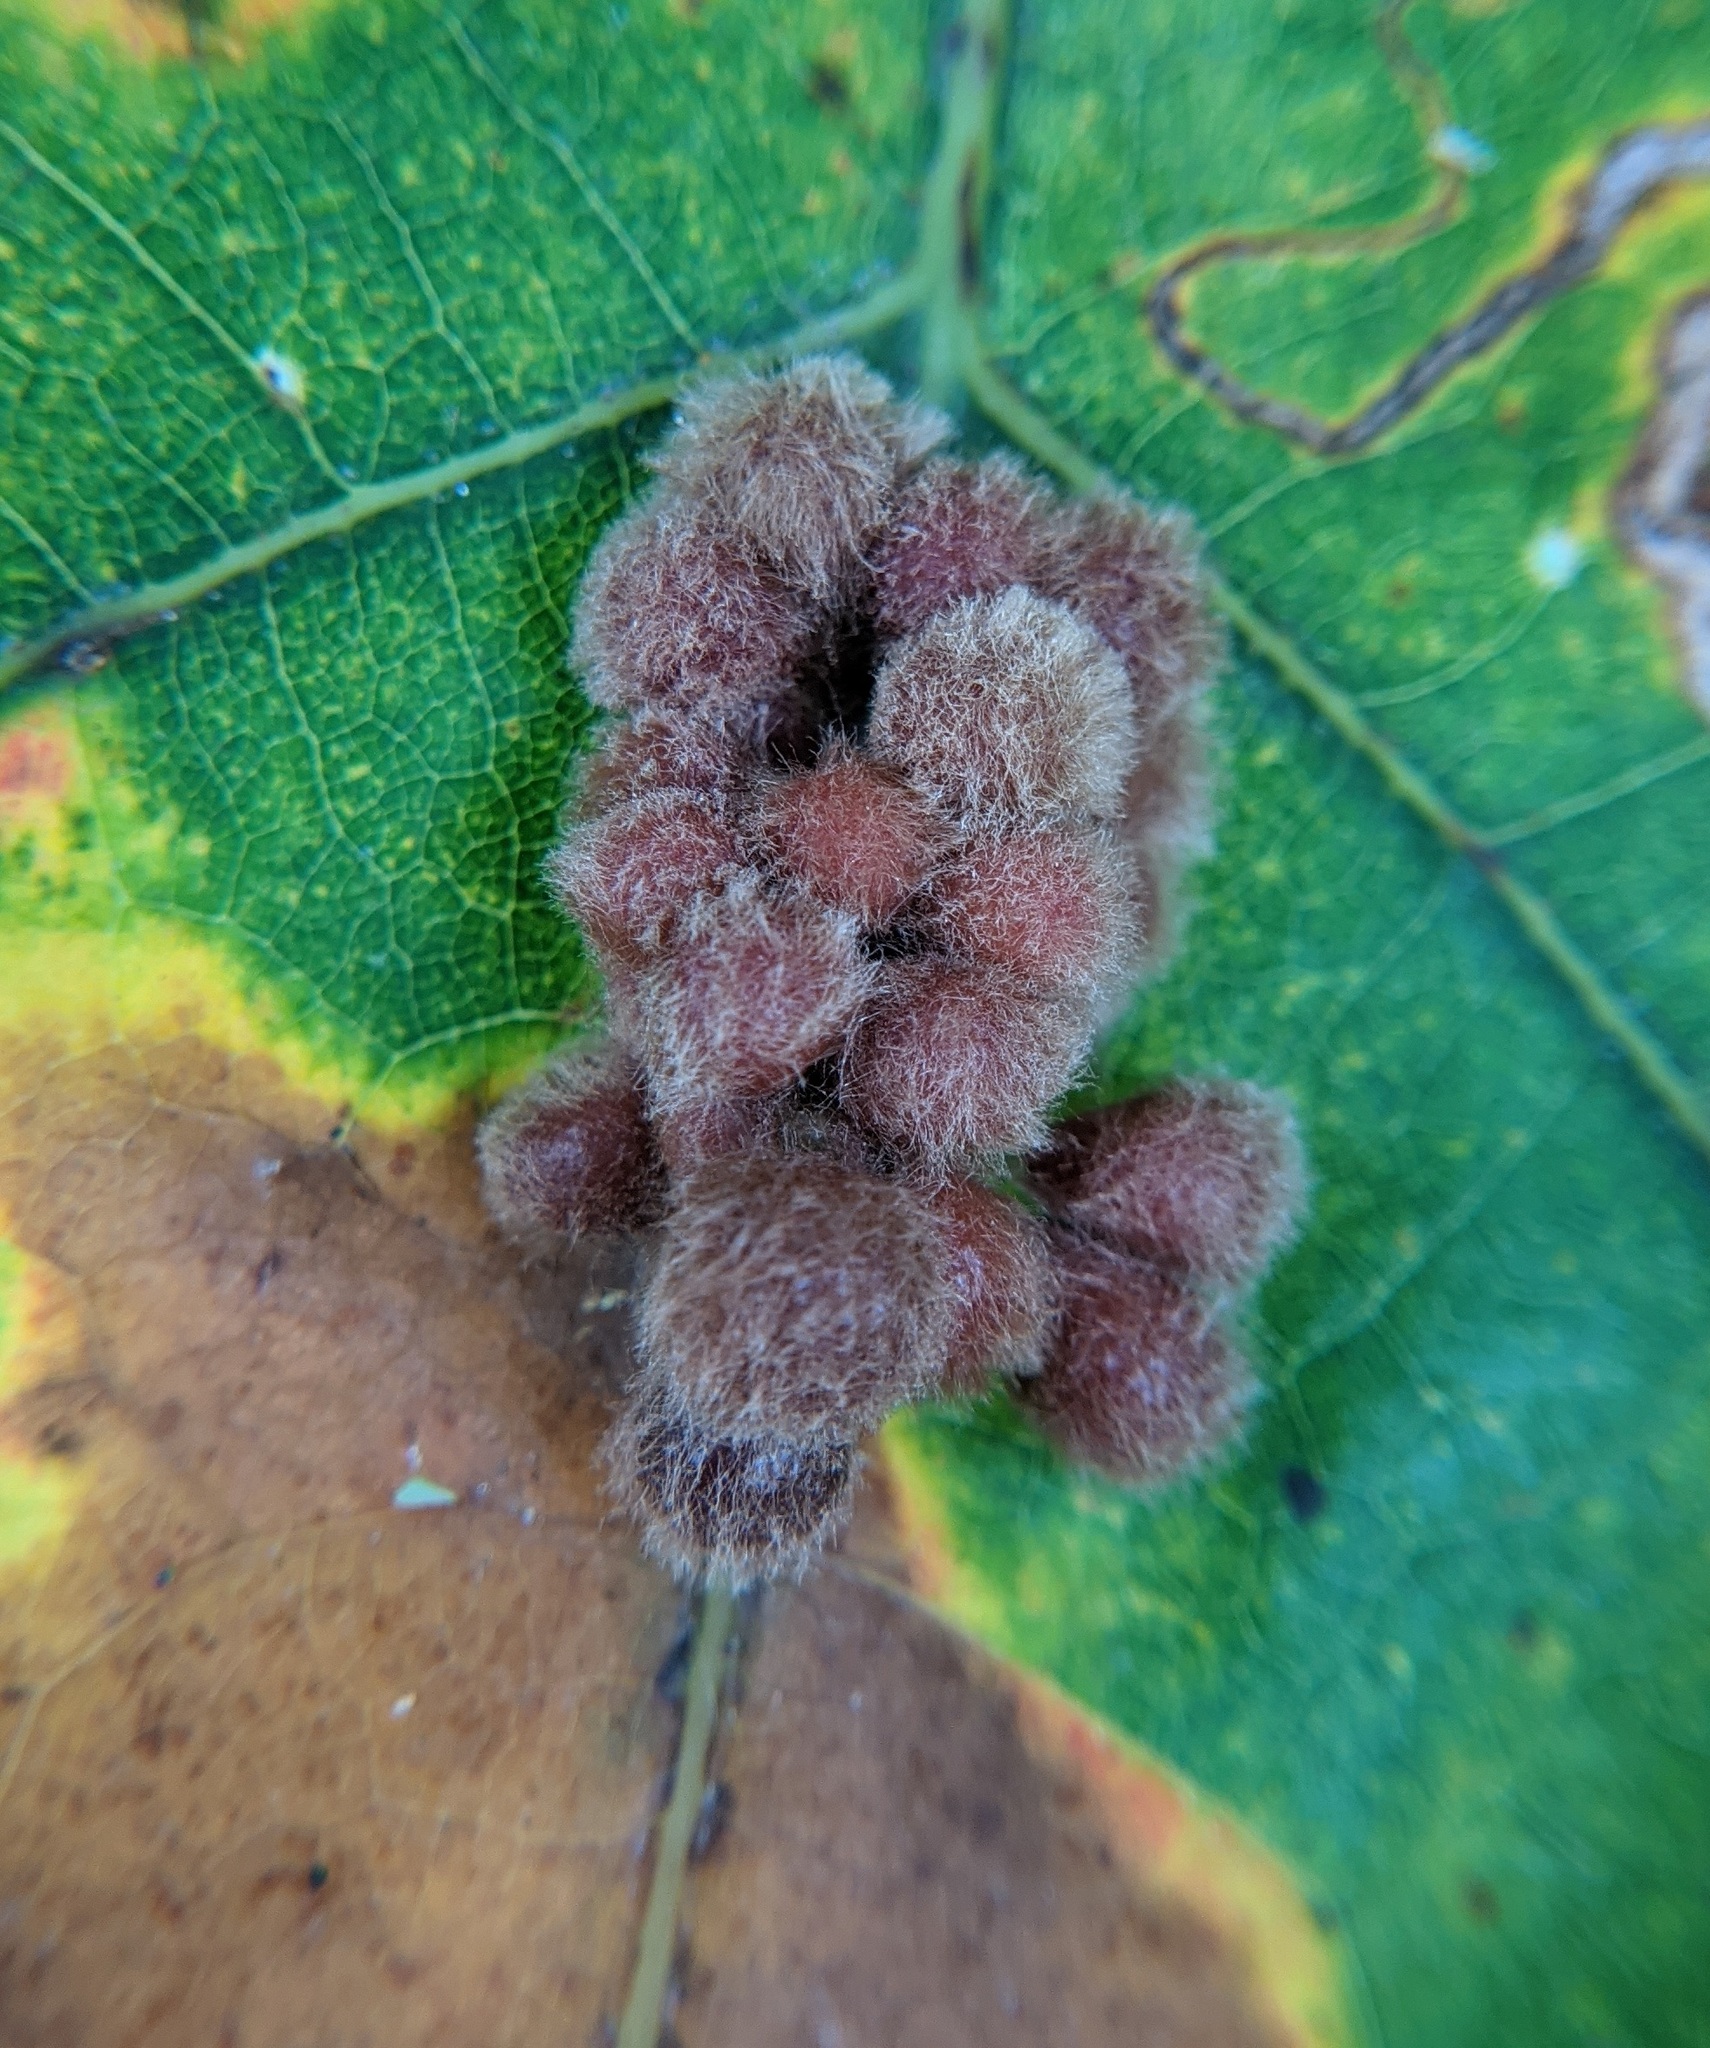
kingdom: Animalia
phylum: Arthropoda
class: Insecta
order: Hymenoptera
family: Cynipidae
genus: Callirhytis
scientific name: Callirhytis
